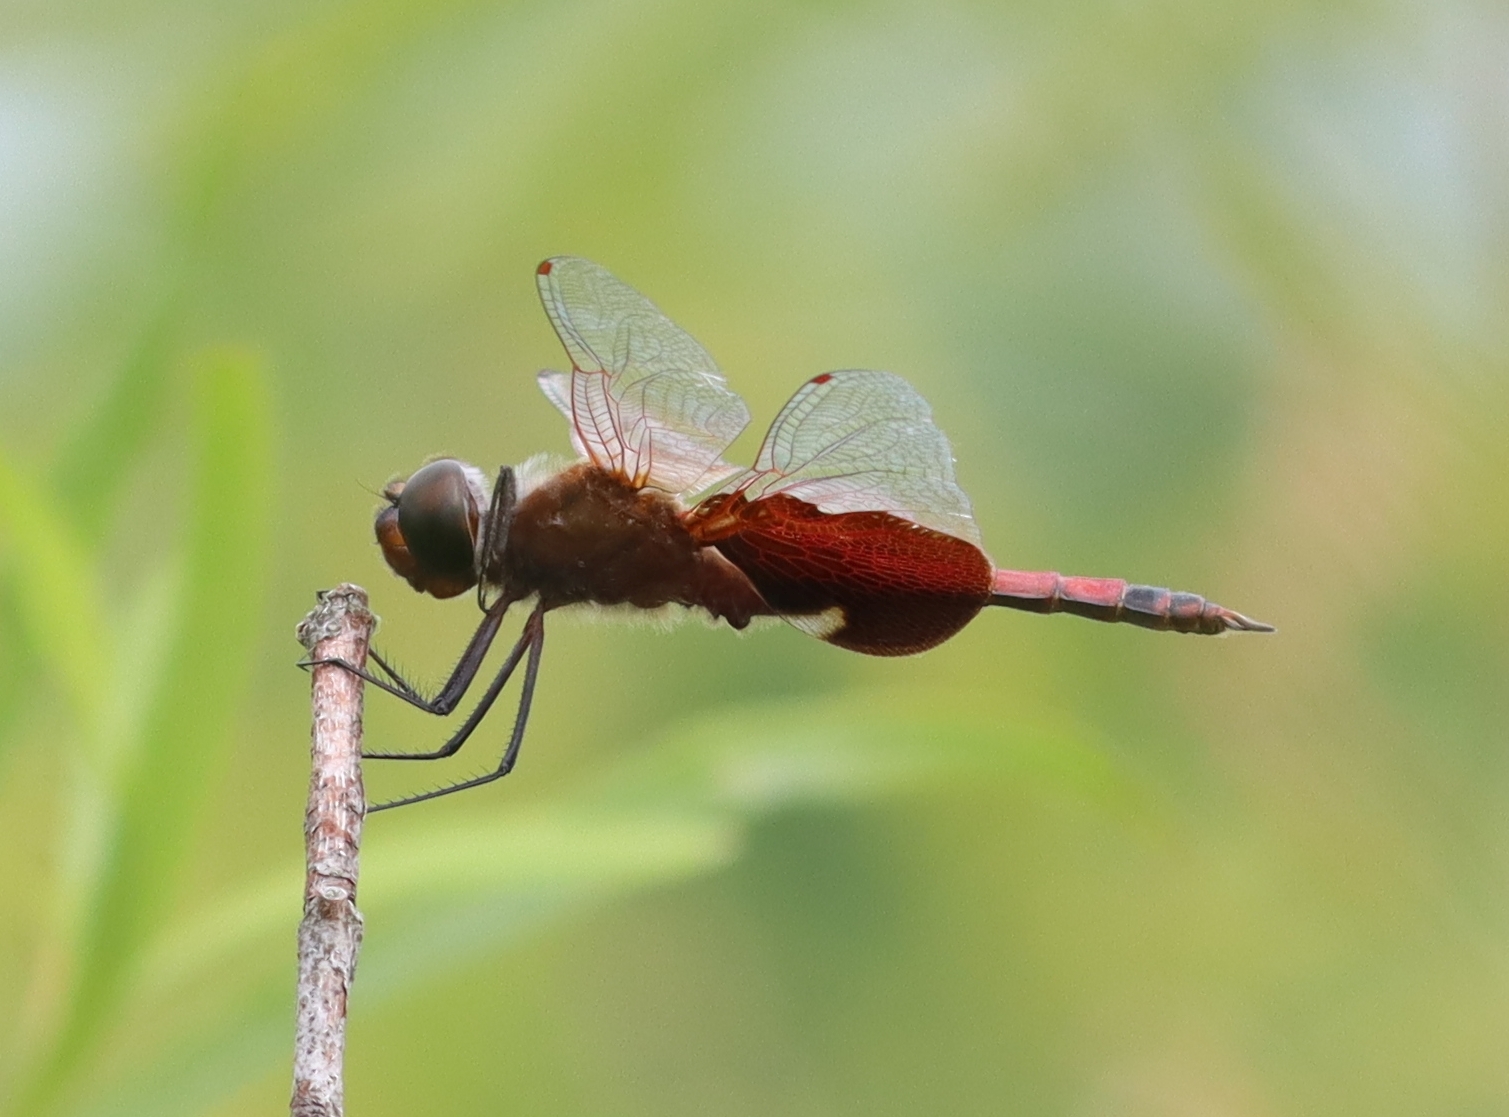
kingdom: Animalia
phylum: Arthropoda
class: Insecta
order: Odonata
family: Libellulidae
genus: Tramea
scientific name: Tramea carolina
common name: Carolina saddlebags
